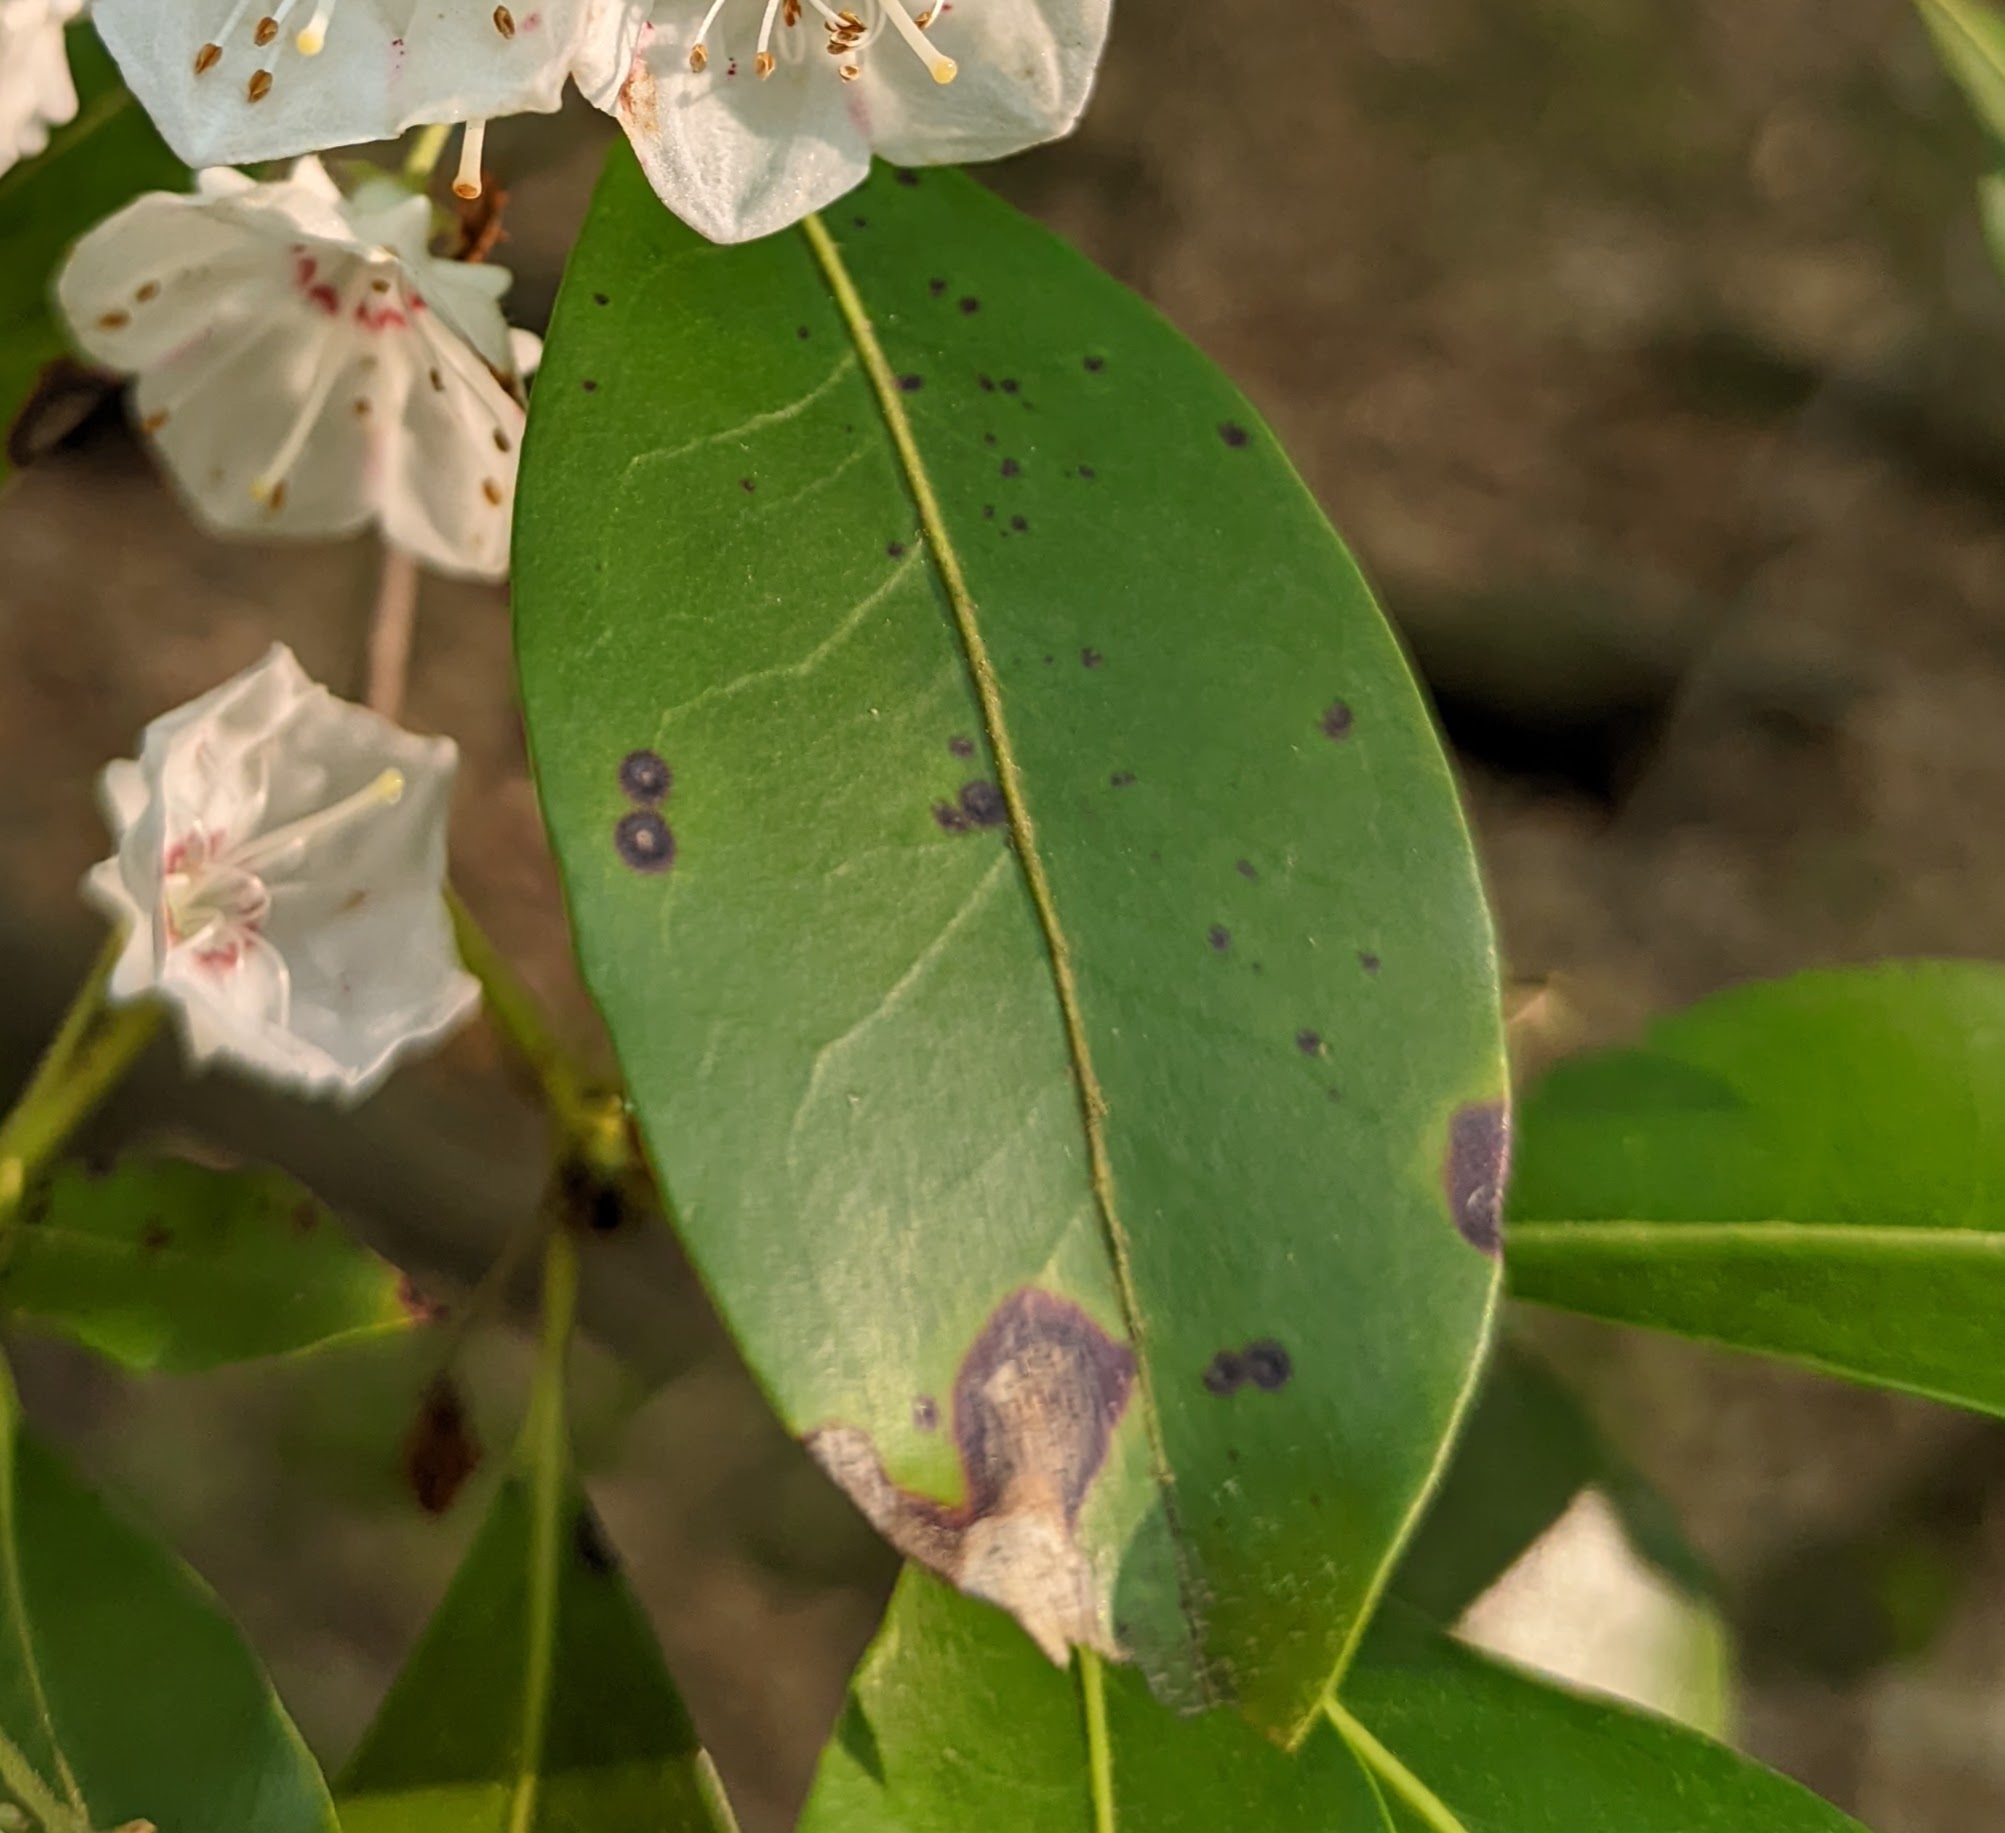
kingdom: Fungi
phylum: Ascomycota
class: Dothideomycetes
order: Mycosphaerellales
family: Mycosphaerellaceae
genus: Mycosphaerella
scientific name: Mycosphaerella colorata
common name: Mountain laurel leaf spot
